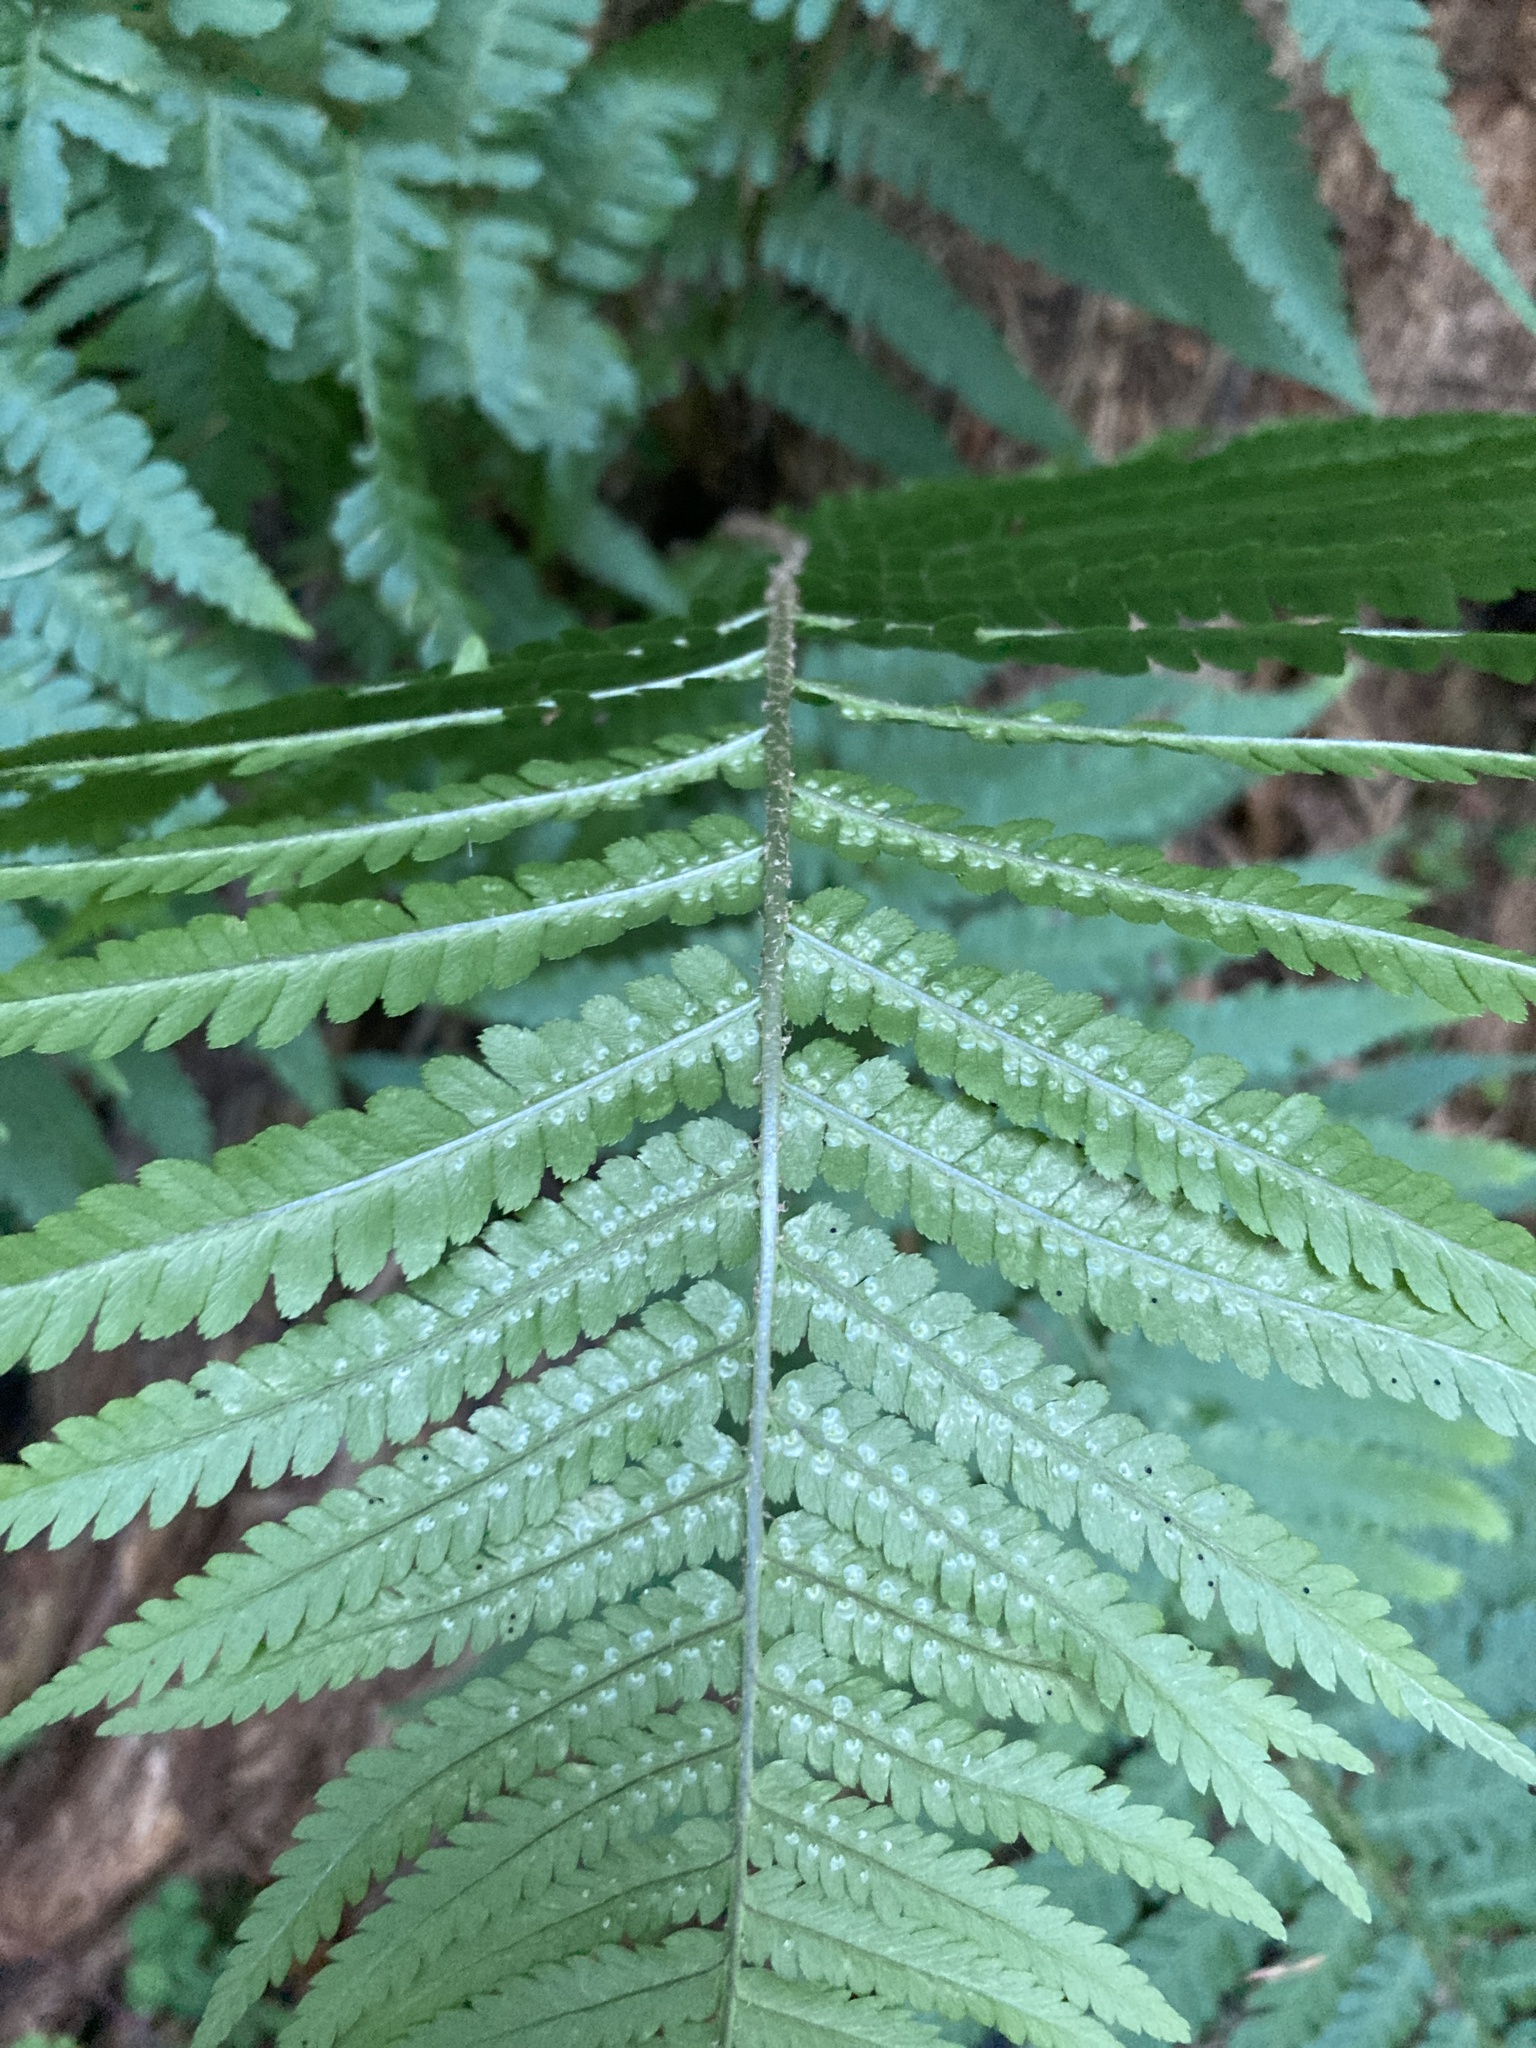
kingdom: Plantae
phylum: Tracheophyta
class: Polypodiopsida
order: Polypodiales
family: Dryopteridaceae
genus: Dryopteris
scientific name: Dryopteris filix-mas
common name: Male fern
